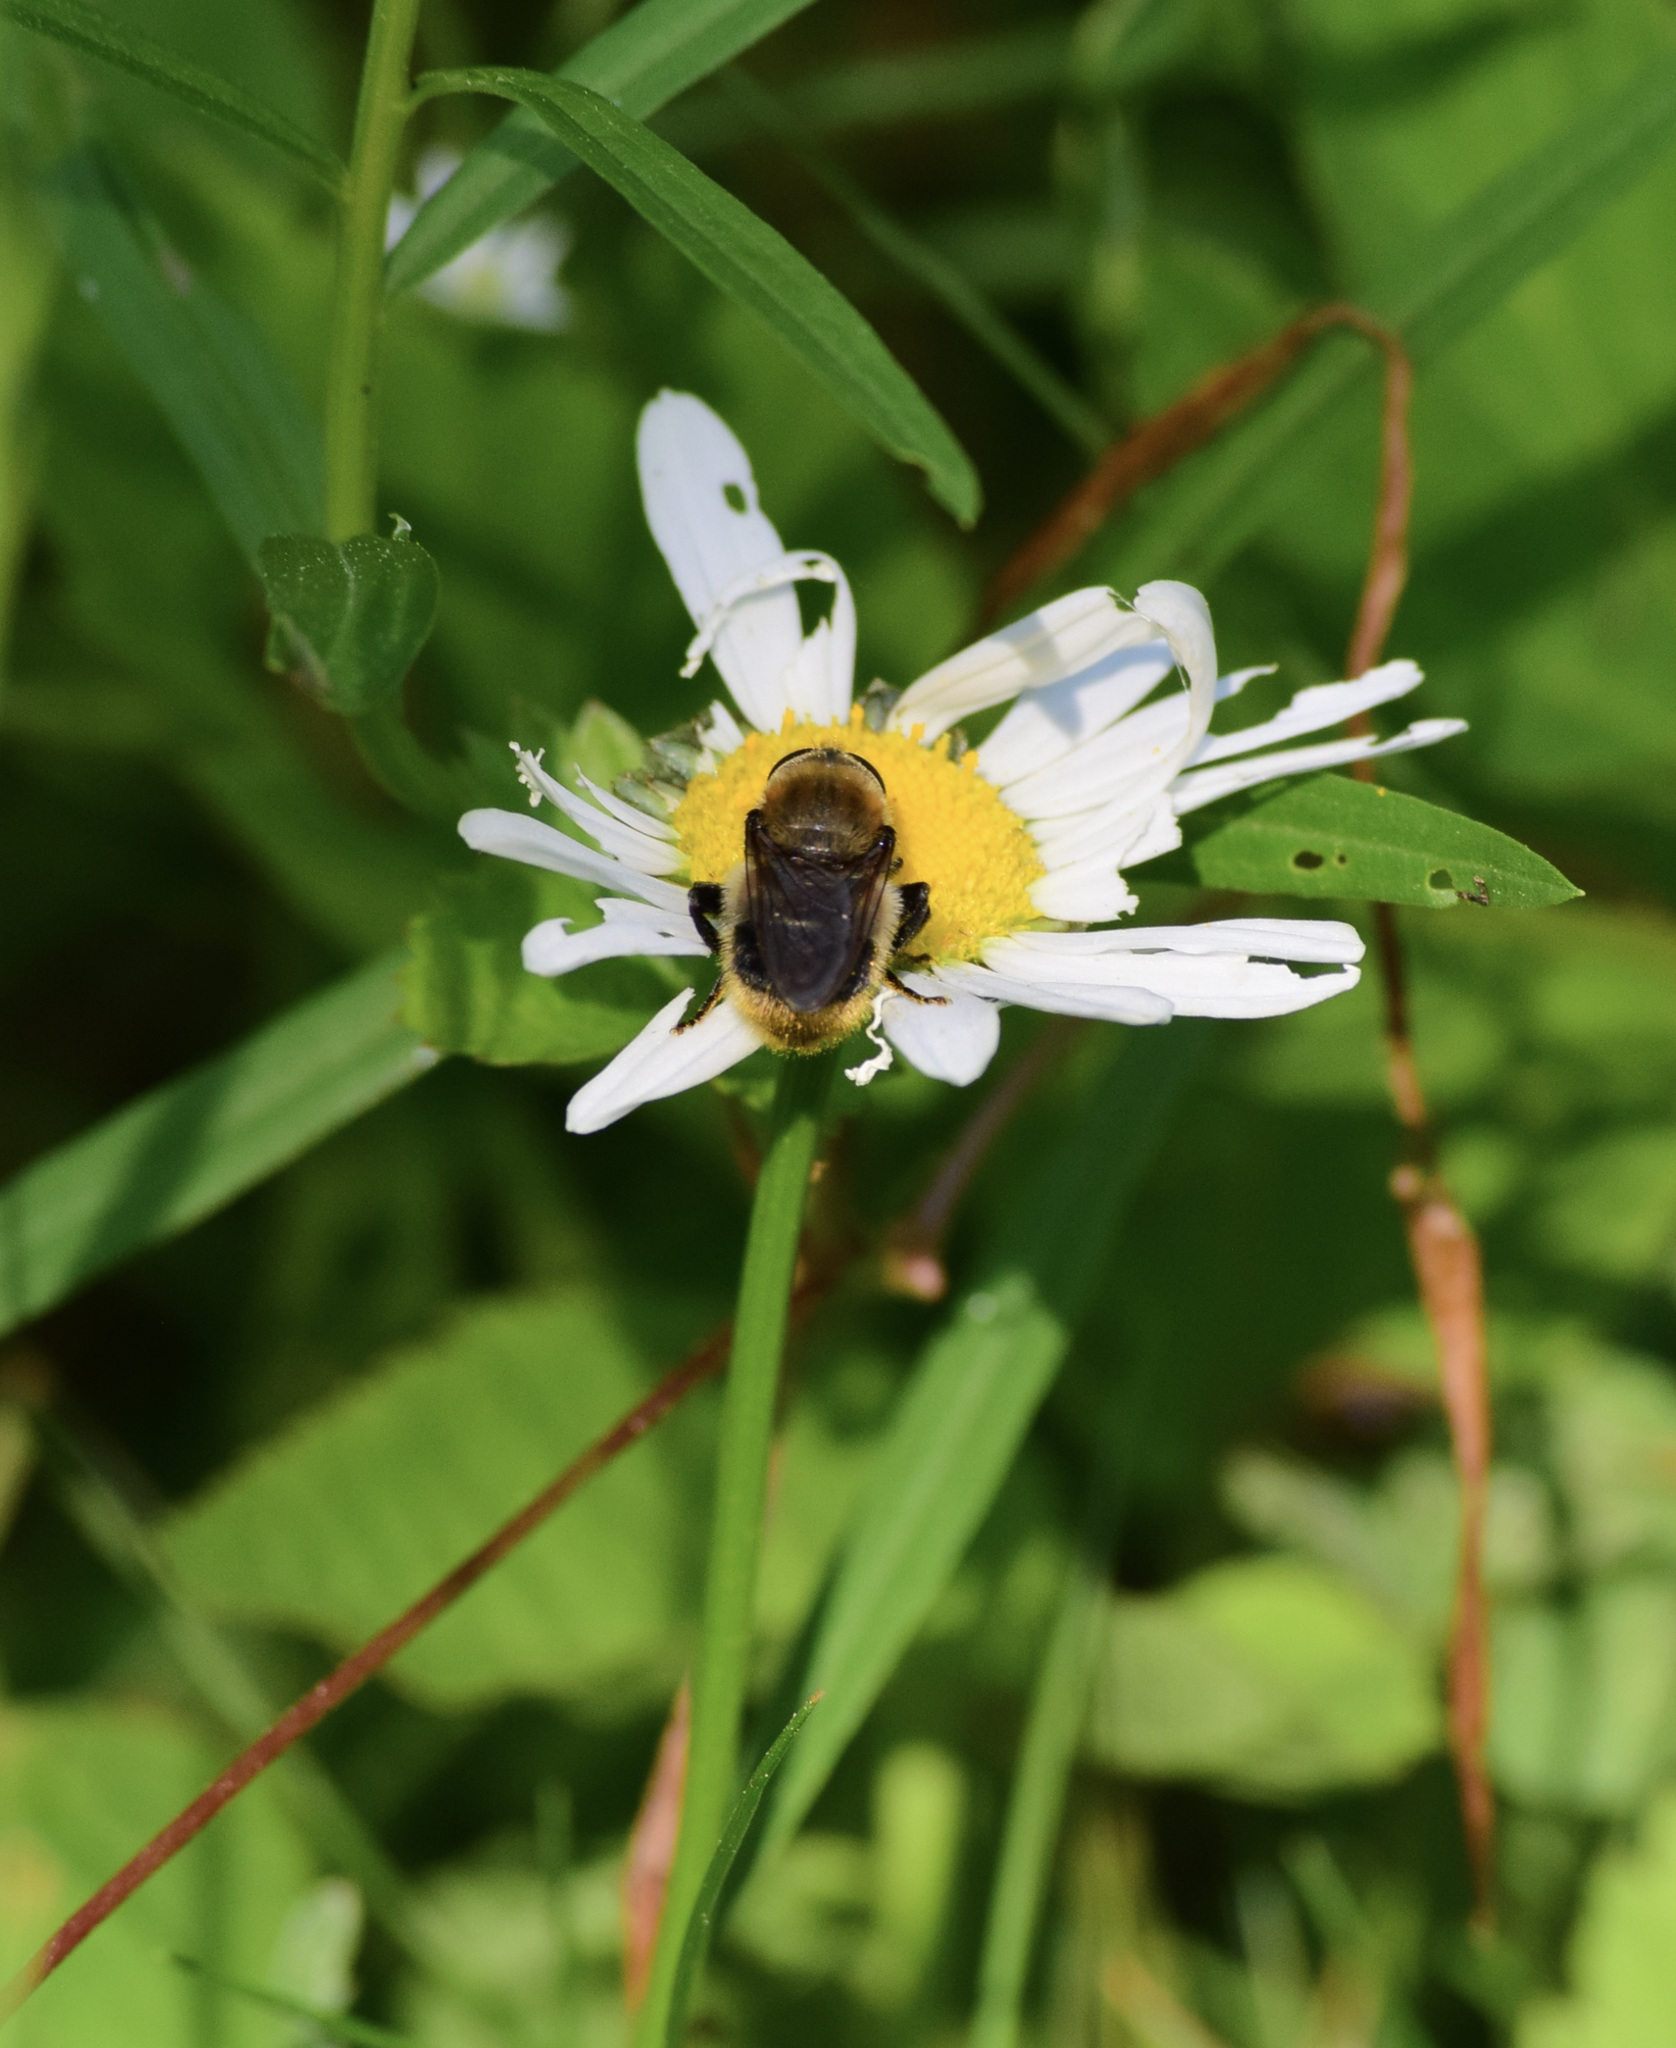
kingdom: Animalia
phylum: Arthropoda
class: Insecta
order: Diptera
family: Syrphidae
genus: Merodon
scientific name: Merodon equestris
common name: Greater bulb-fly
